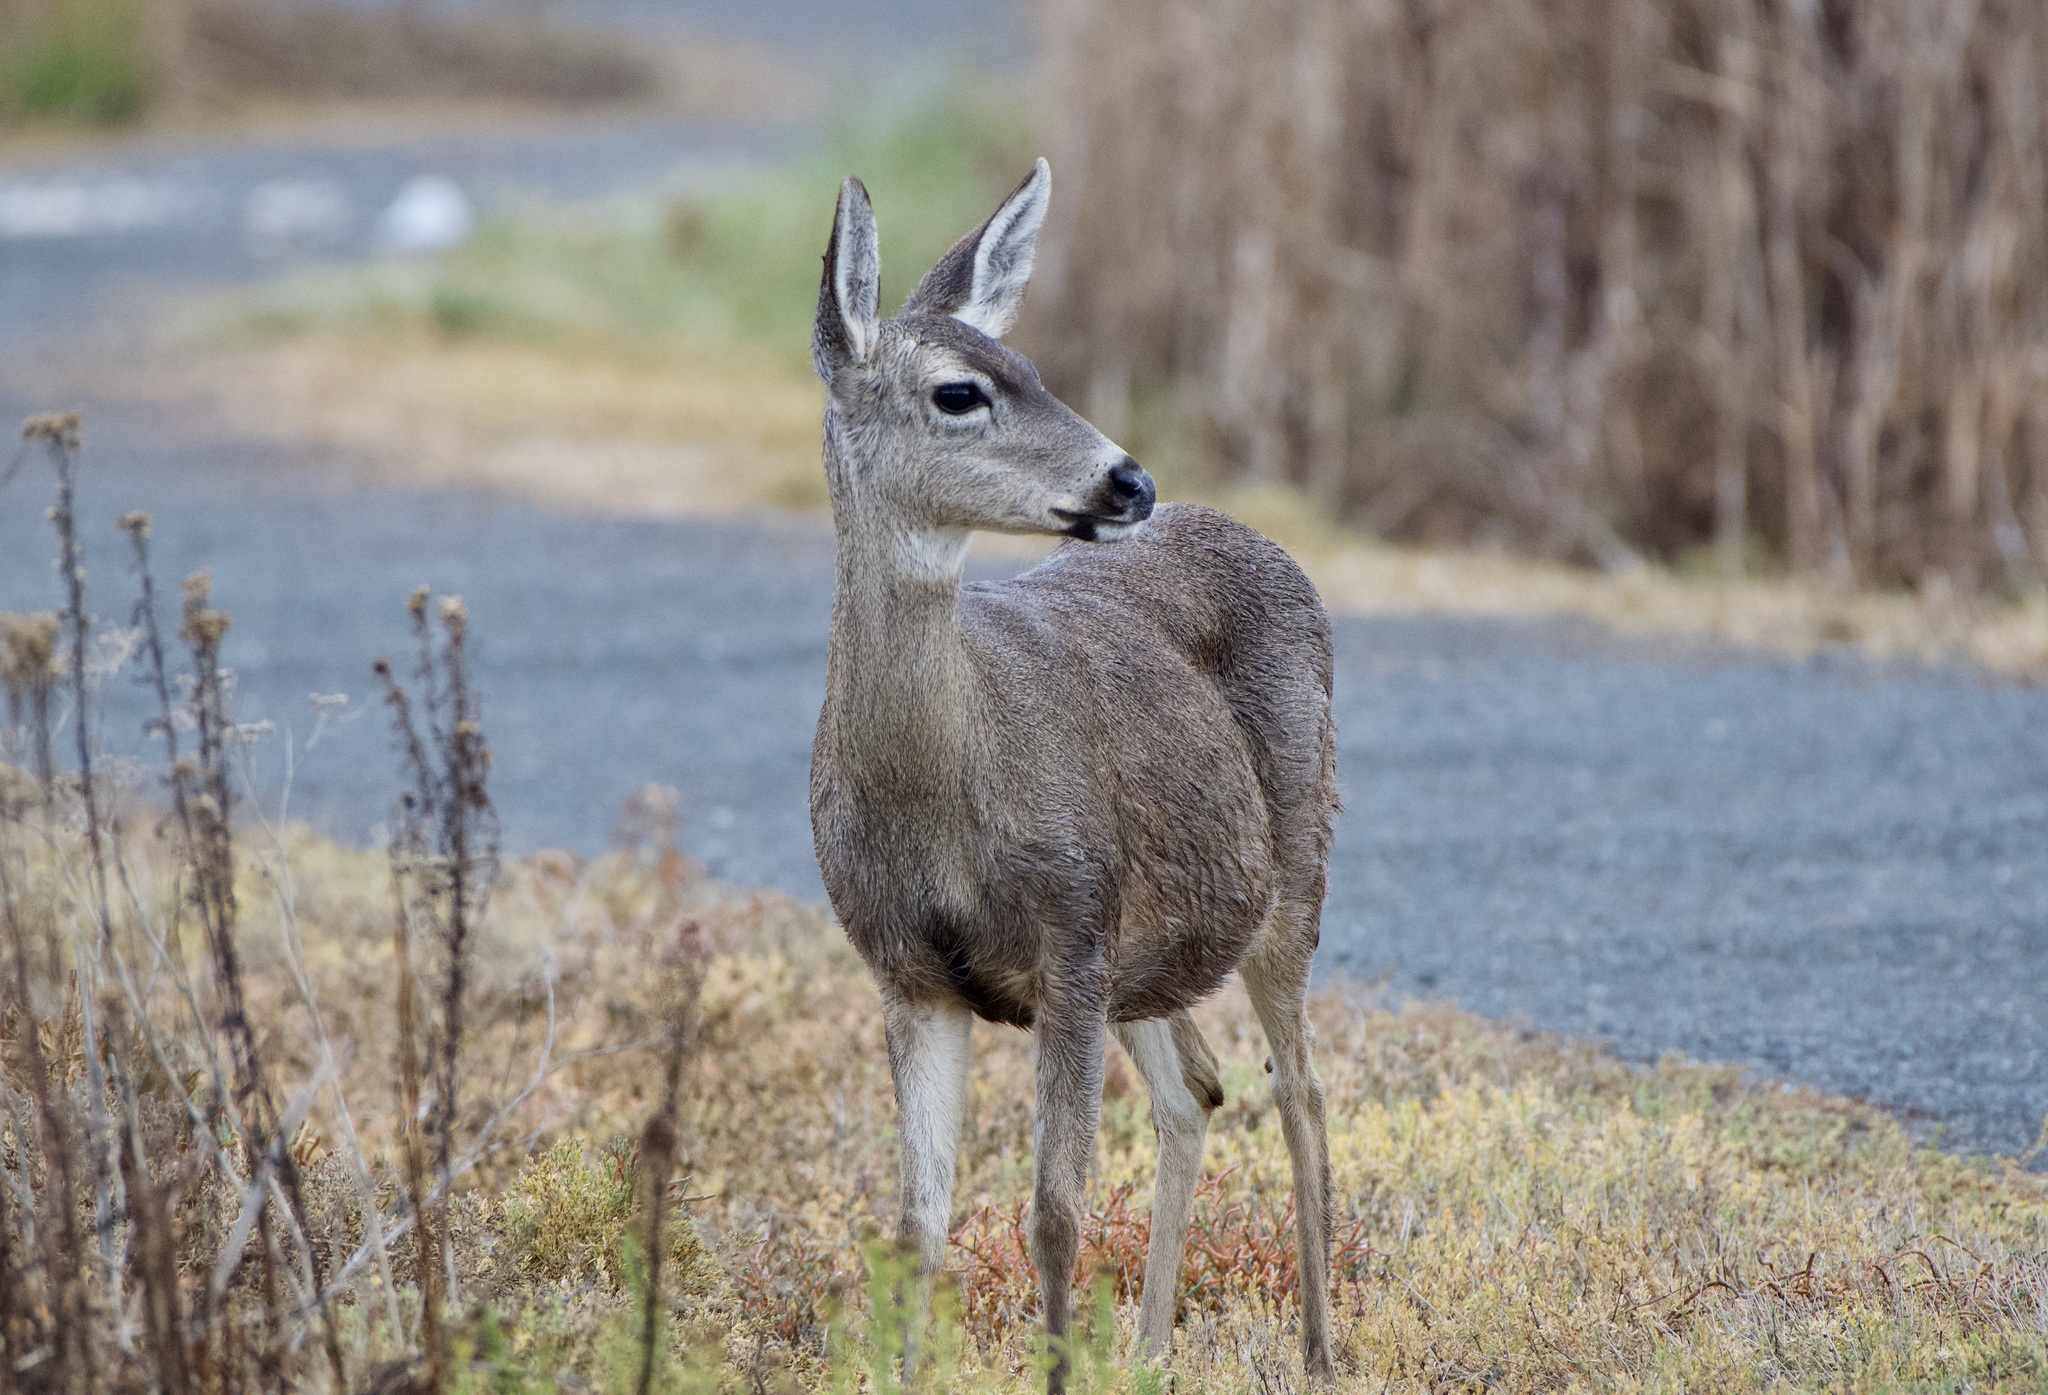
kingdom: Animalia
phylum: Chordata
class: Mammalia
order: Artiodactyla
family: Cervidae
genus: Odocoileus
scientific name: Odocoileus hemionus
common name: Mule deer
